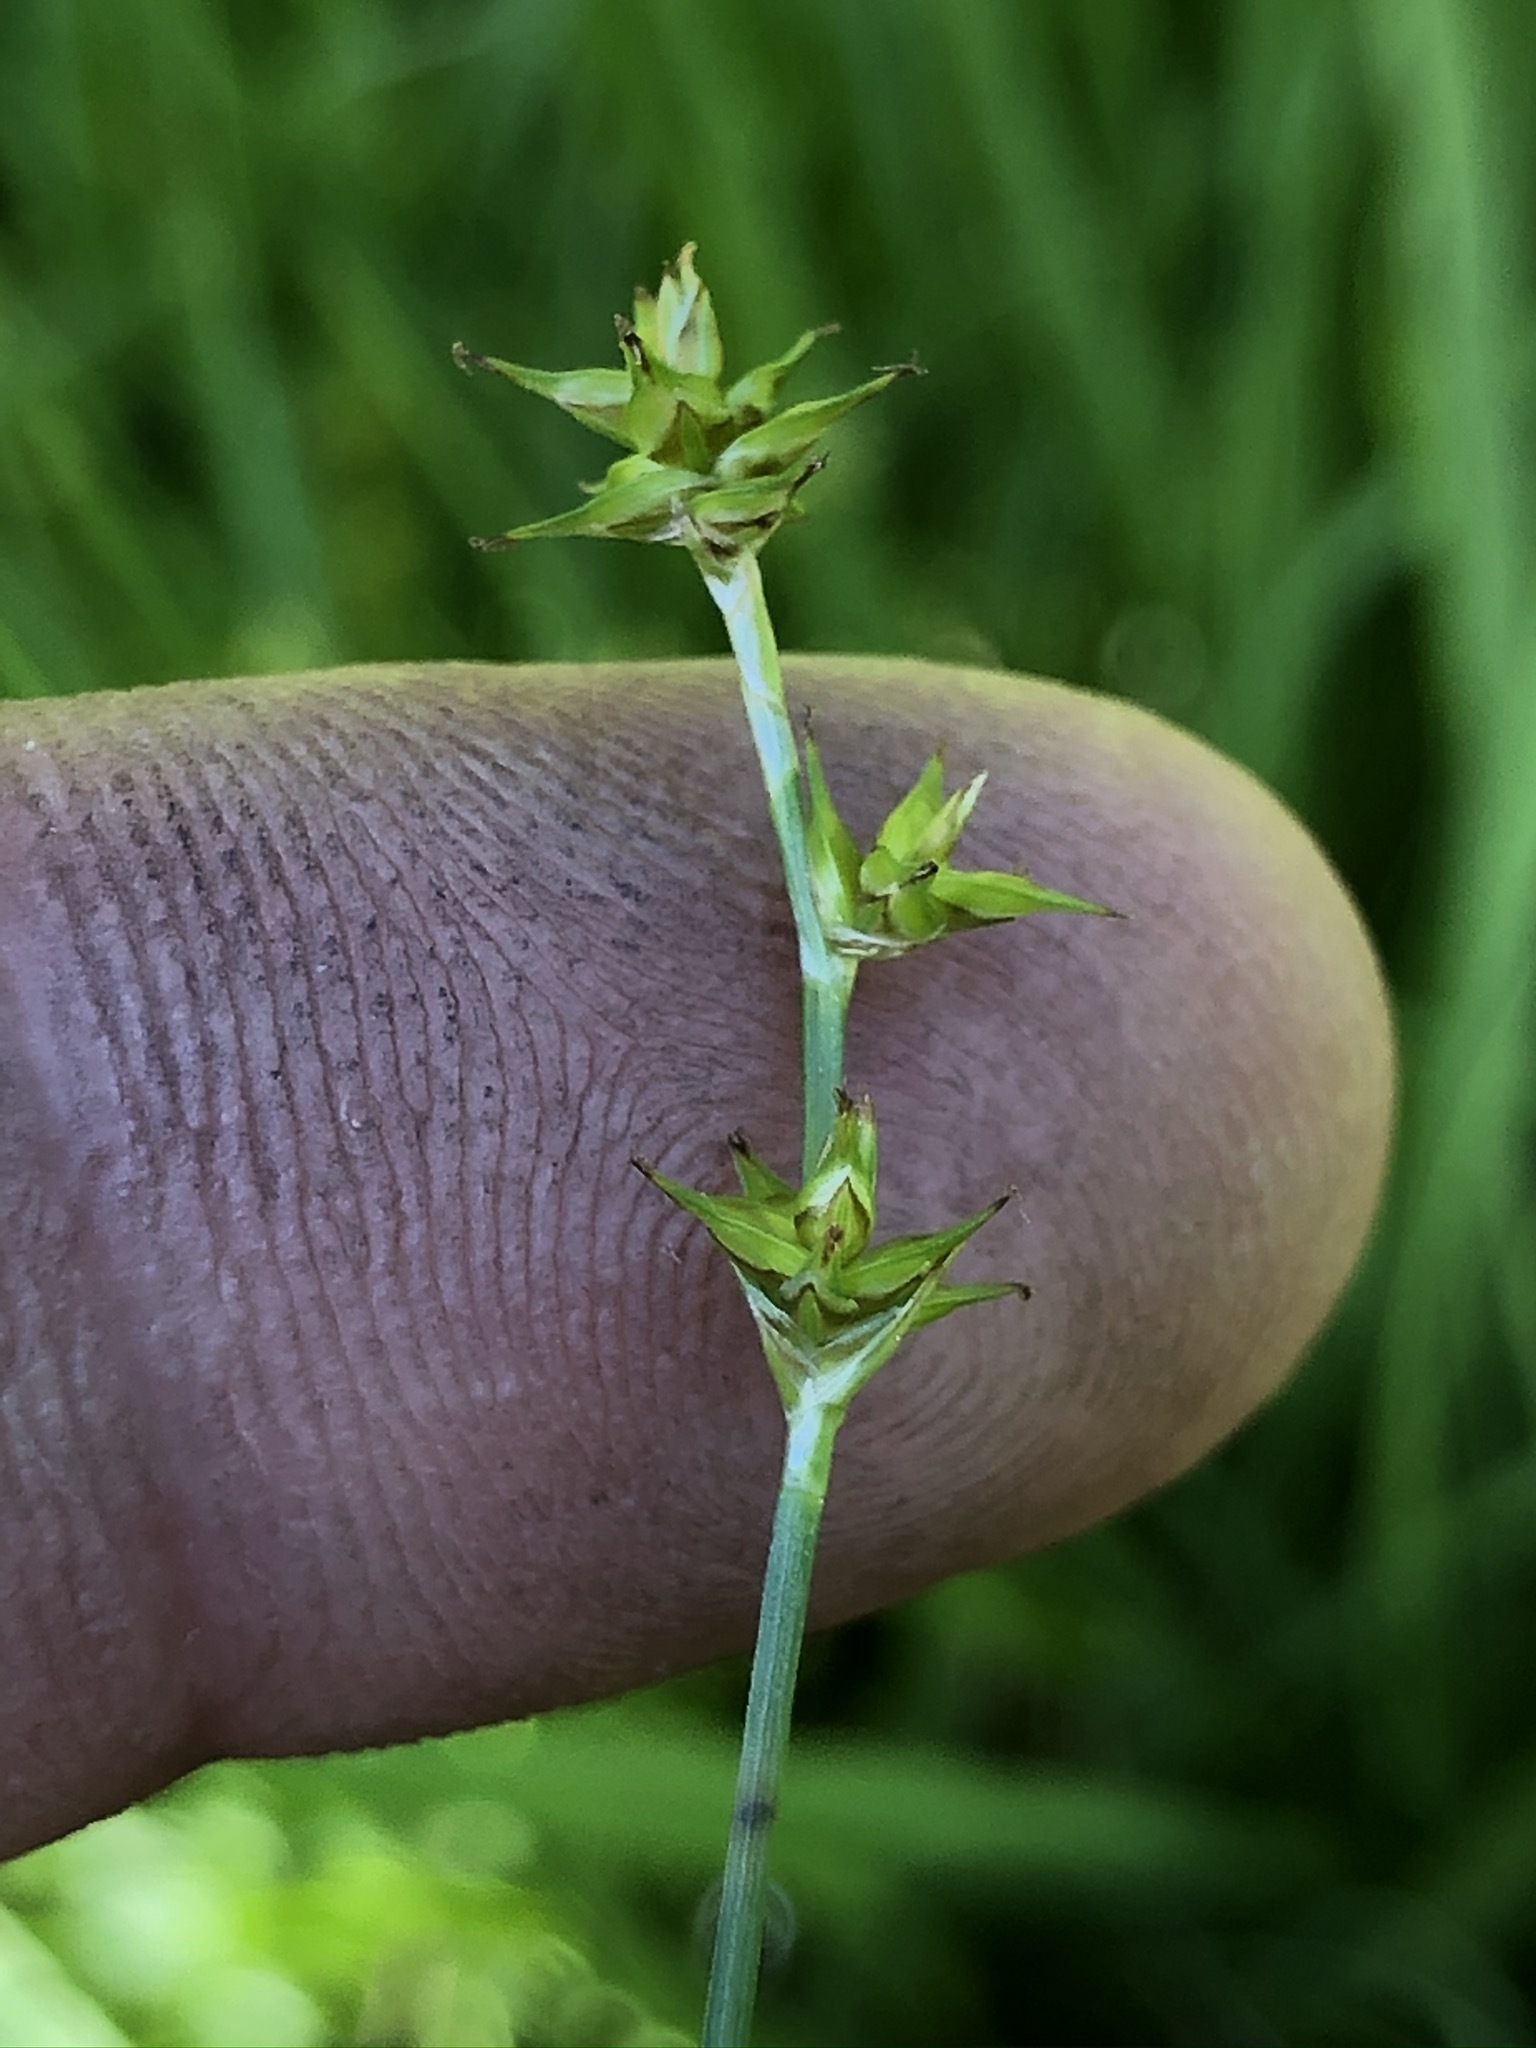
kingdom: Plantae
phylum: Tracheophyta
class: Liliopsida
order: Poales
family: Cyperaceae
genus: Carex
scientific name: Carex echinata
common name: Star sedge
